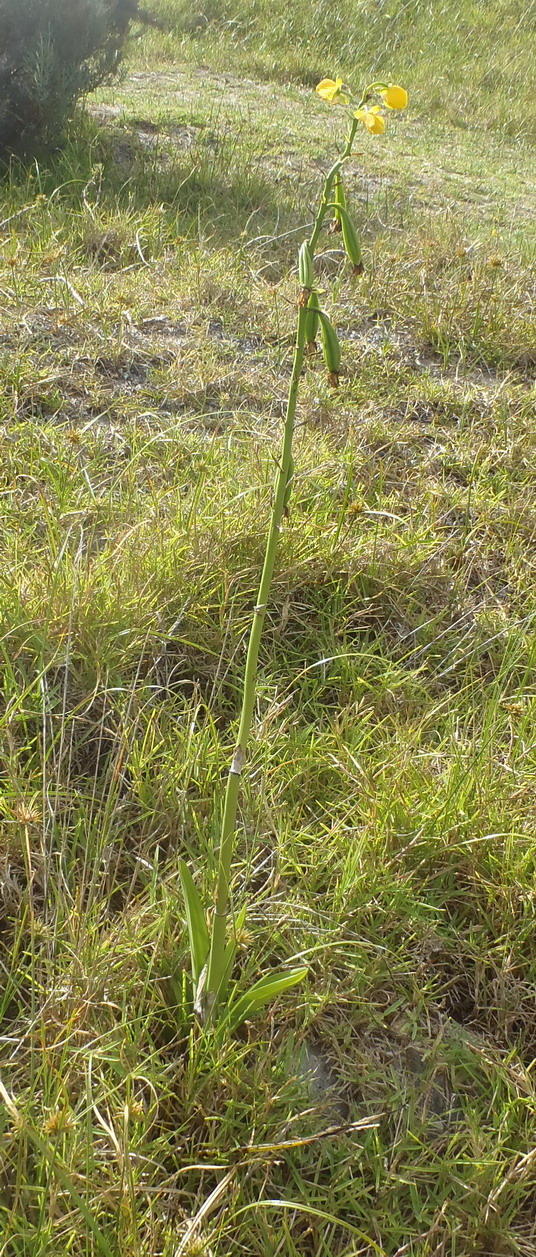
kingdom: Plantae
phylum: Tracheophyta
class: Liliopsida
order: Asparagales
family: Orchidaceae
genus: Eulophia
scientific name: Eulophia speciosa
